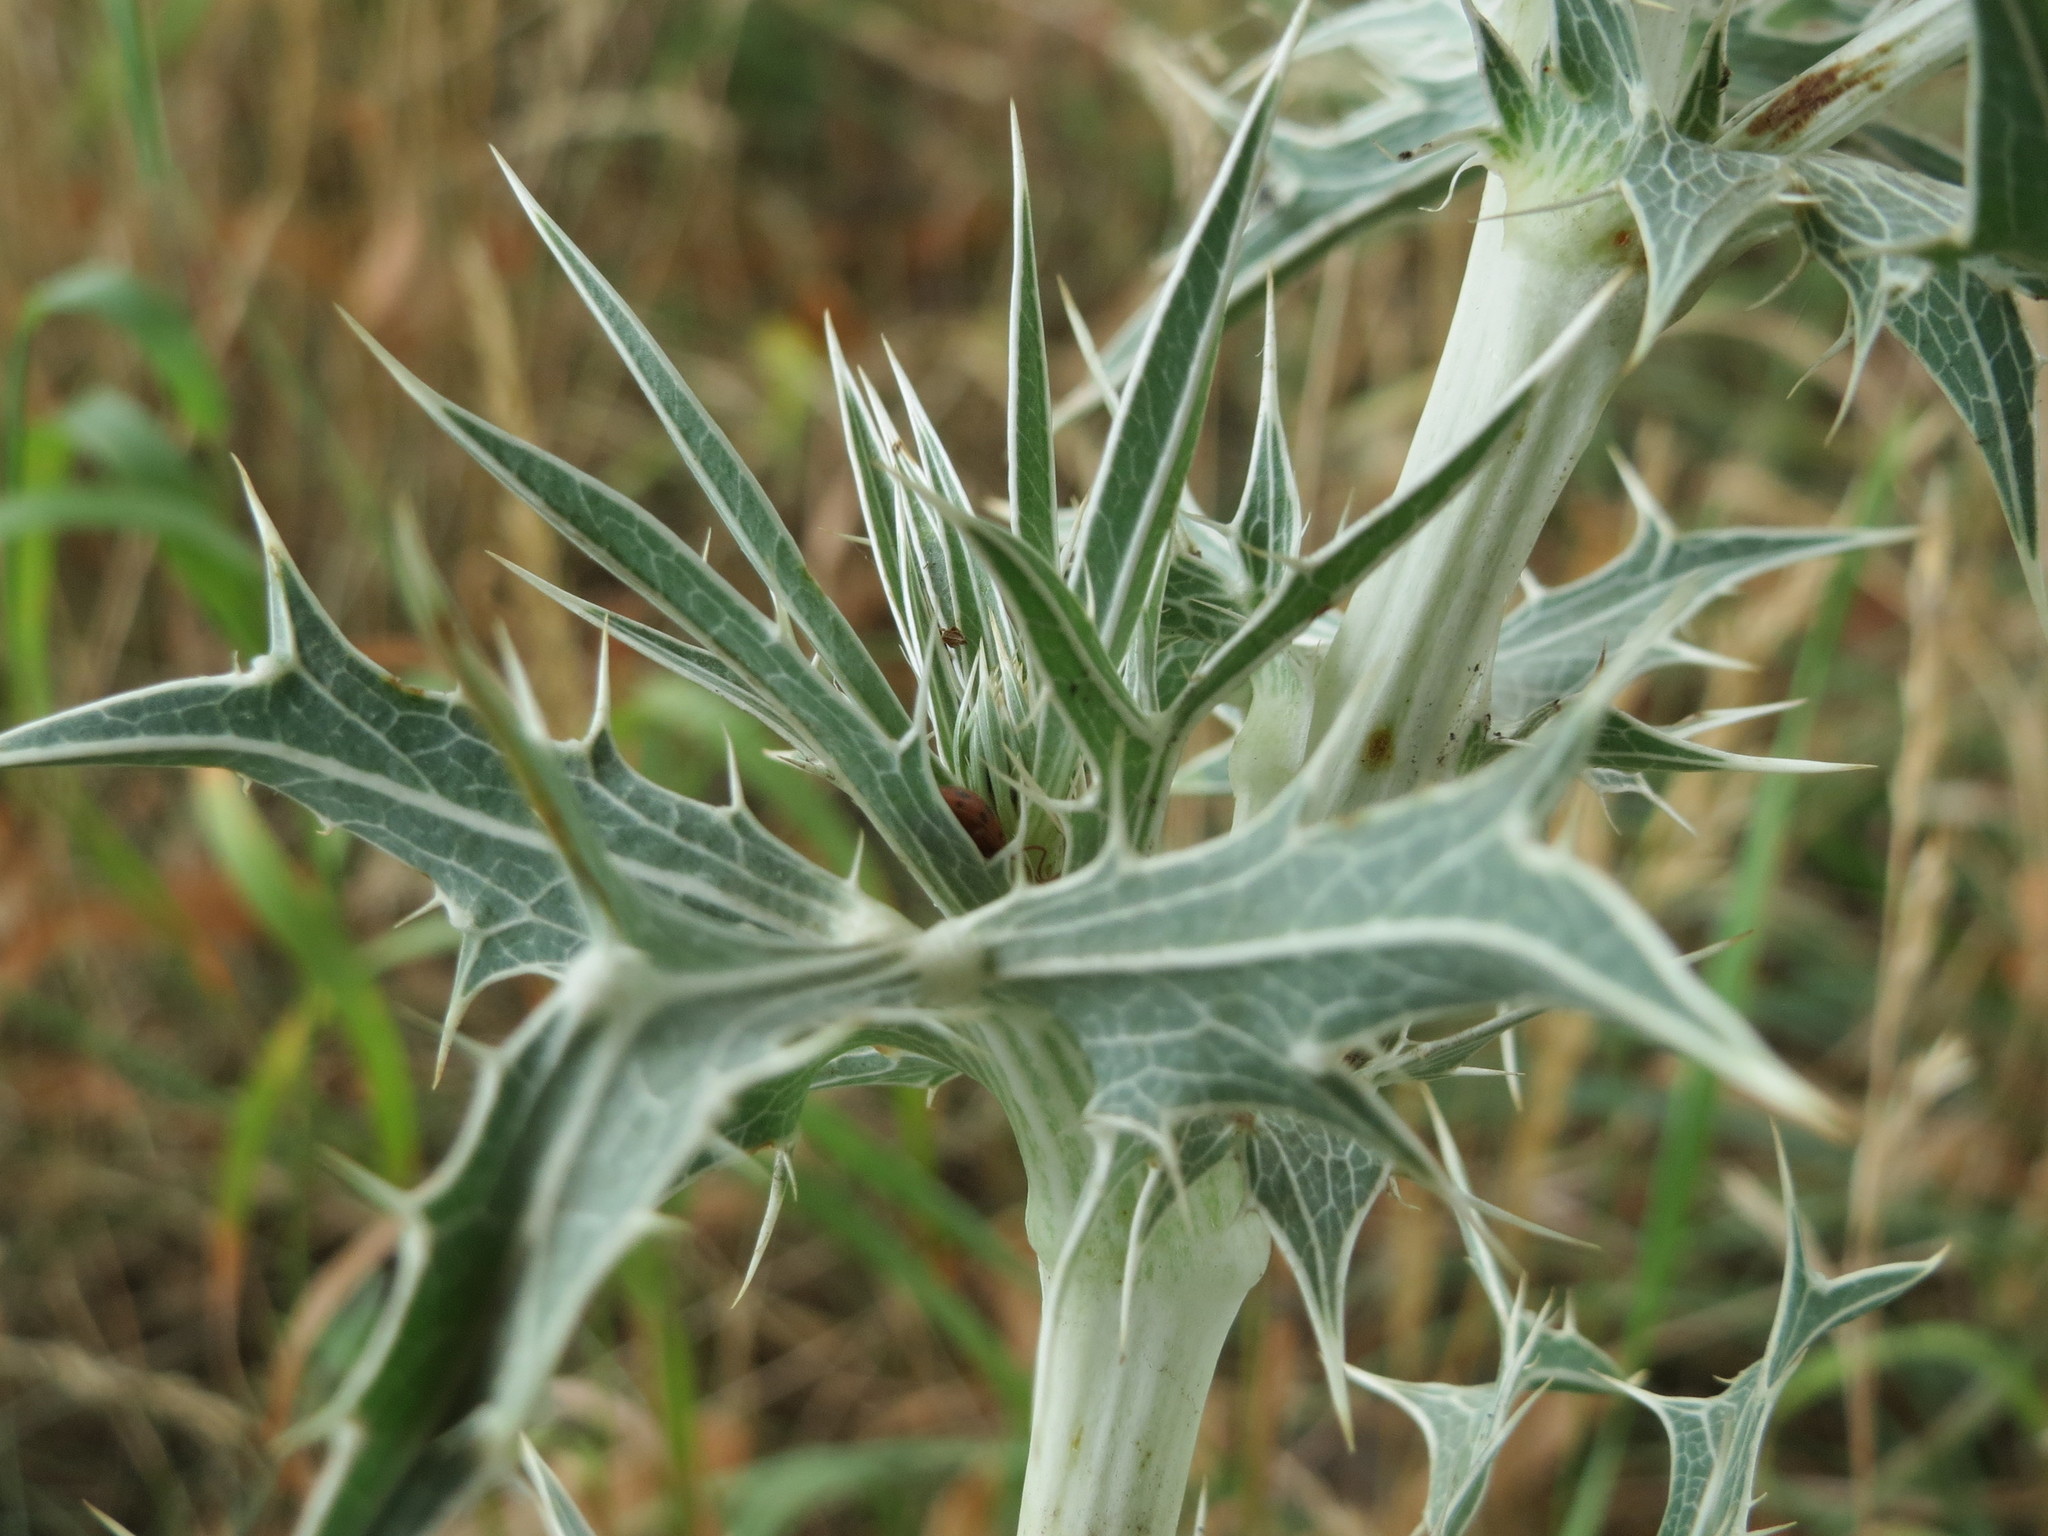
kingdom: Plantae
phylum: Tracheophyta
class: Magnoliopsida
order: Apiales
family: Apiaceae
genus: Eryngium
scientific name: Eryngium campestre
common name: Field eryngo
